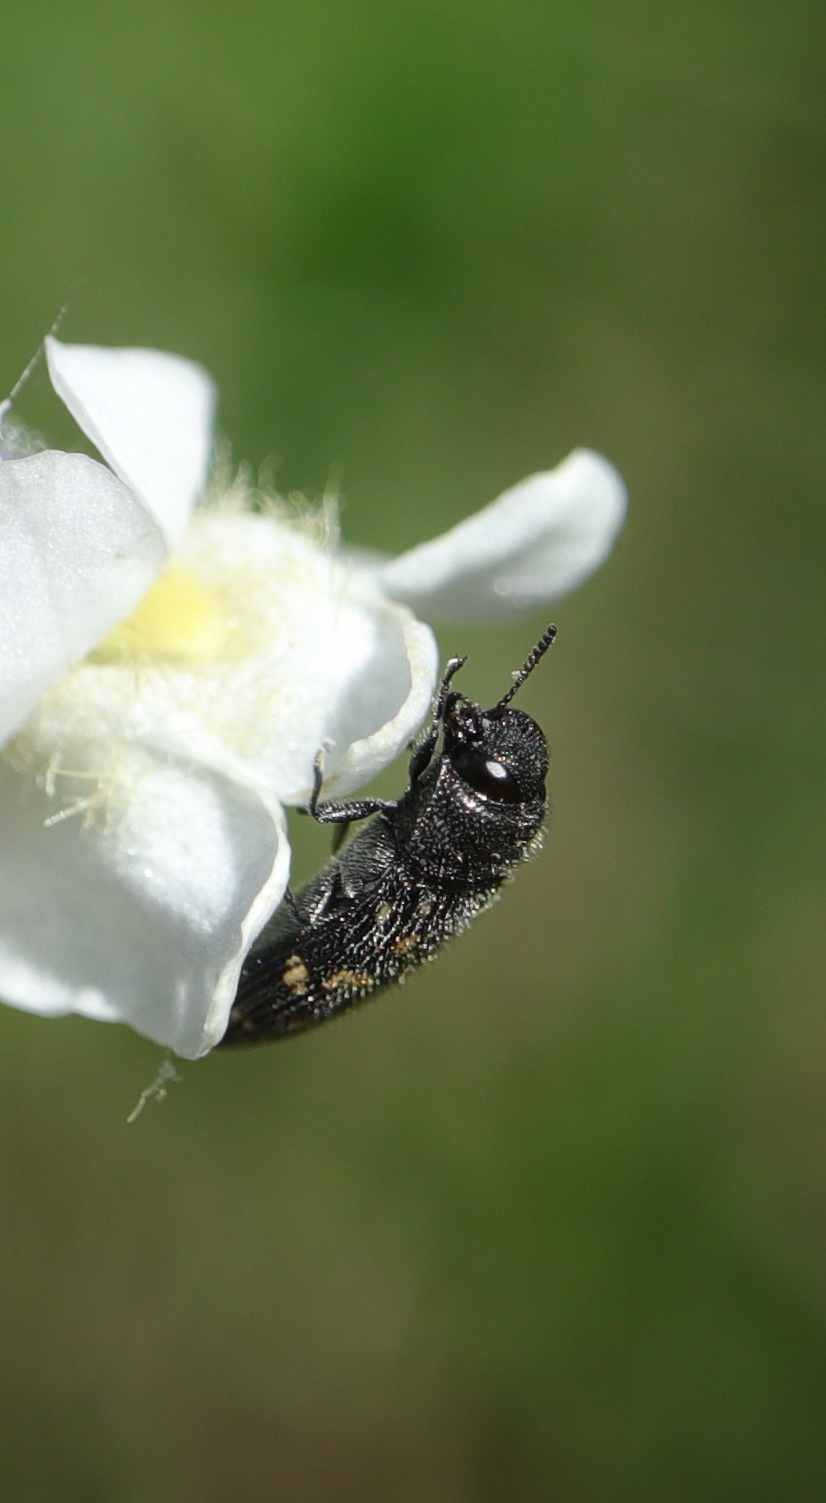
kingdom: Animalia
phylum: Arthropoda
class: Insecta
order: Coleoptera
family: Buprestidae
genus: Acmaeodera
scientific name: Acmaeodera tubulus
